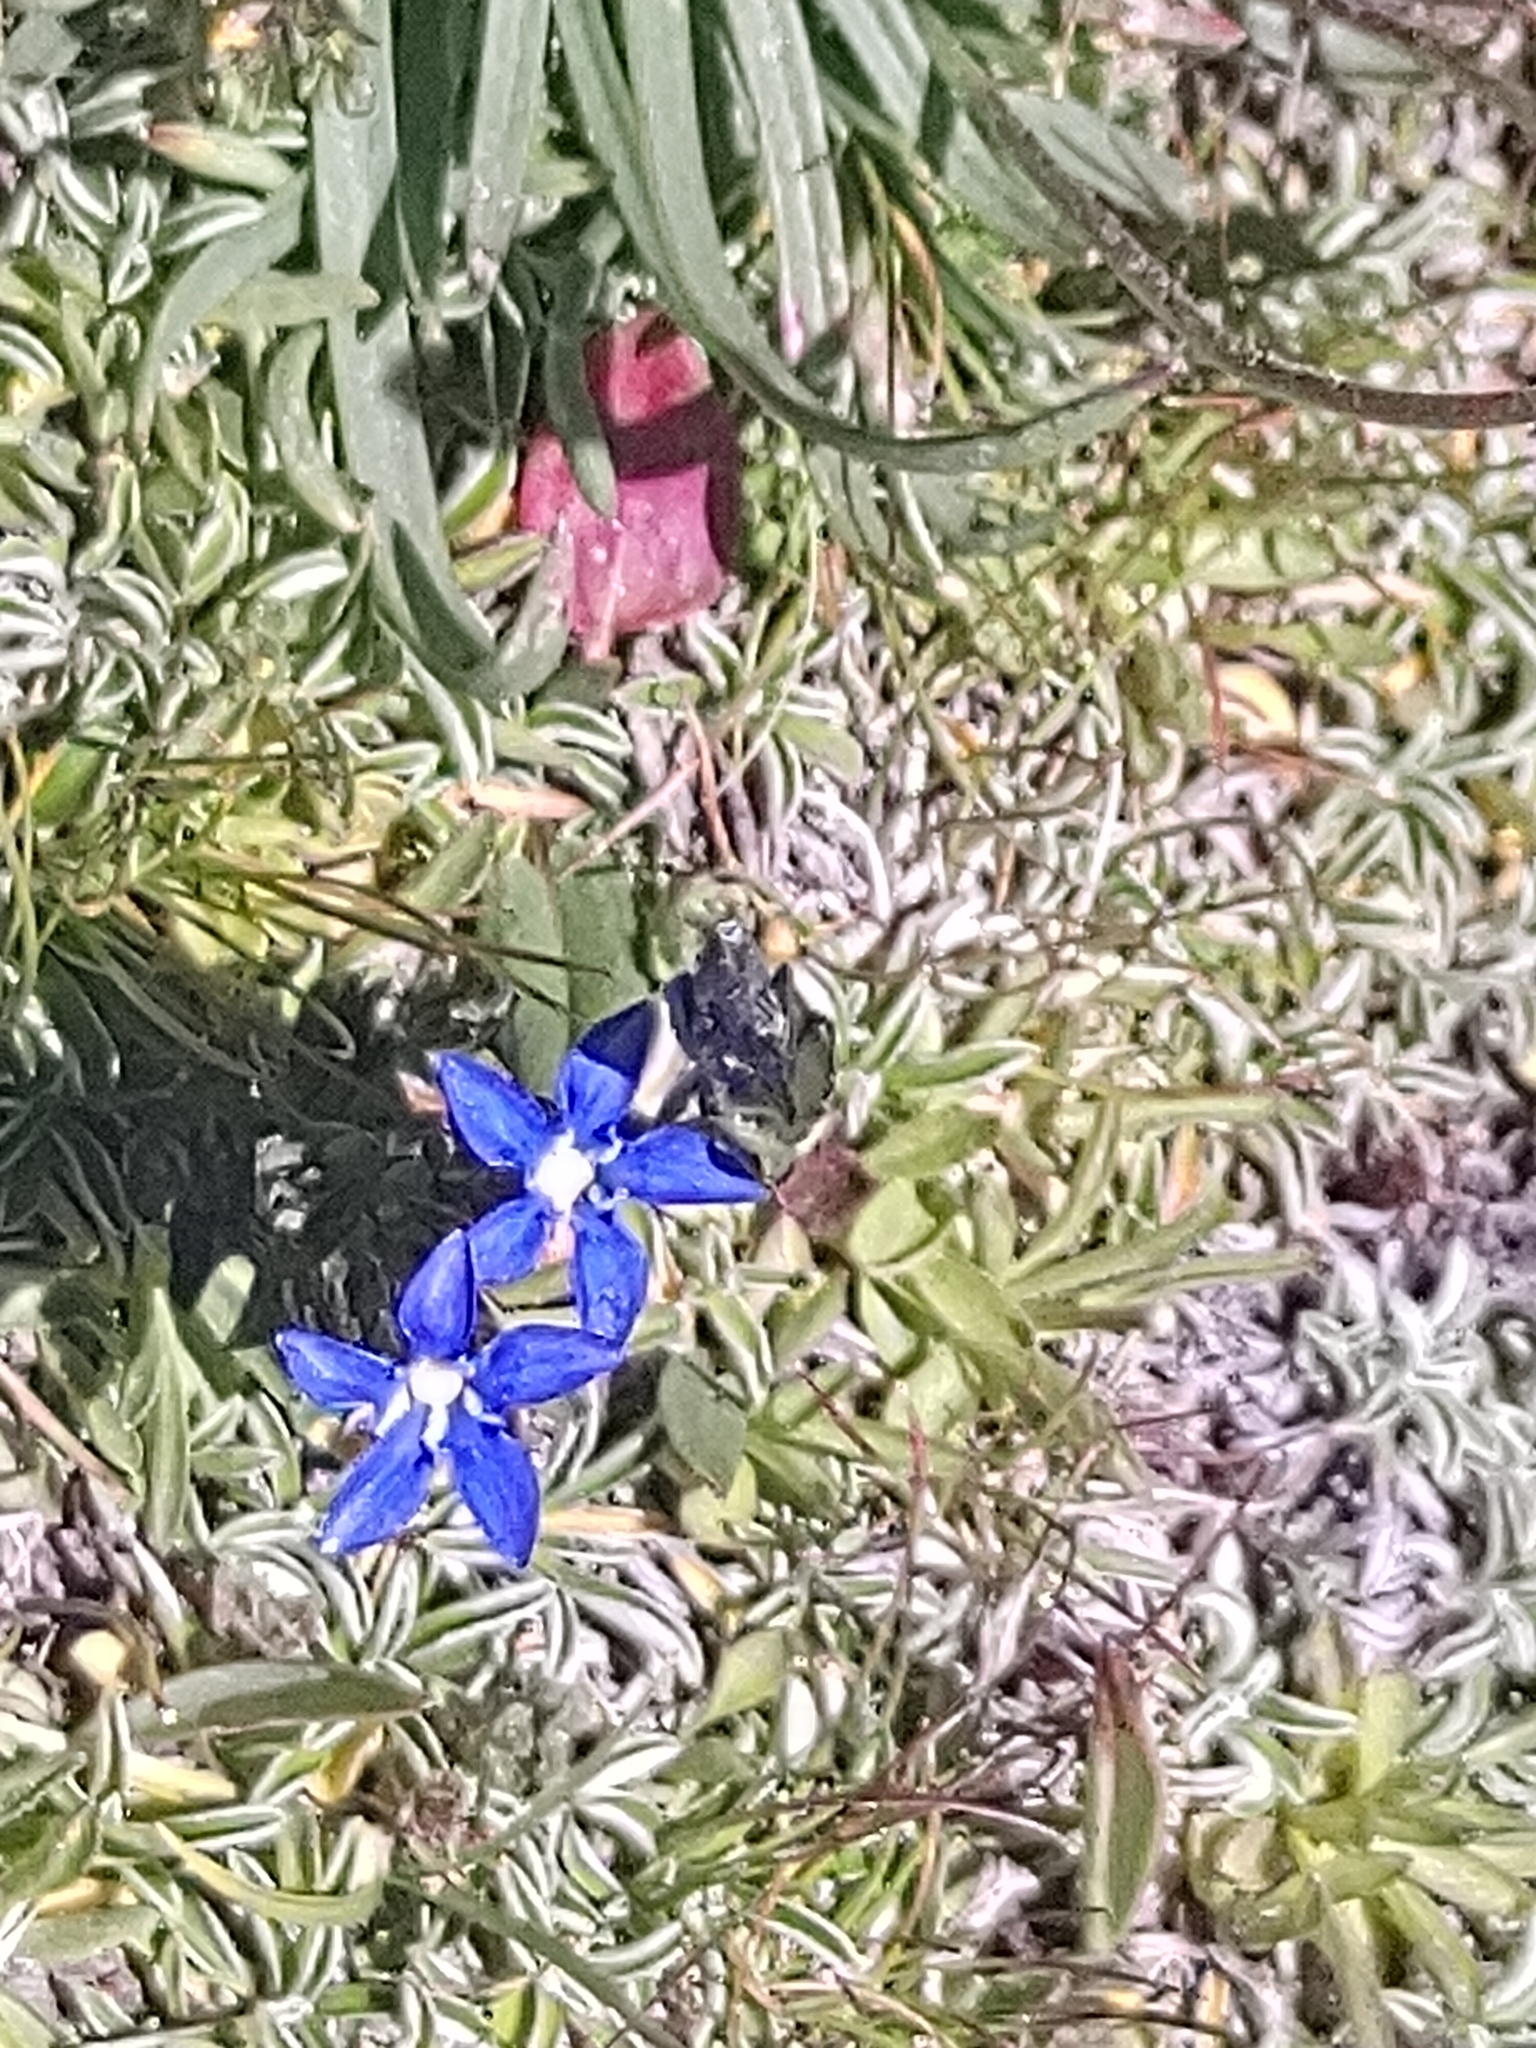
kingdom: Plantae
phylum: Tracheophyta
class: Magnoliopsida
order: Gentianales
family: Gentianaceae
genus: Gentiana
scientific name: Gentiana nivalis
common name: Alpine gentian
